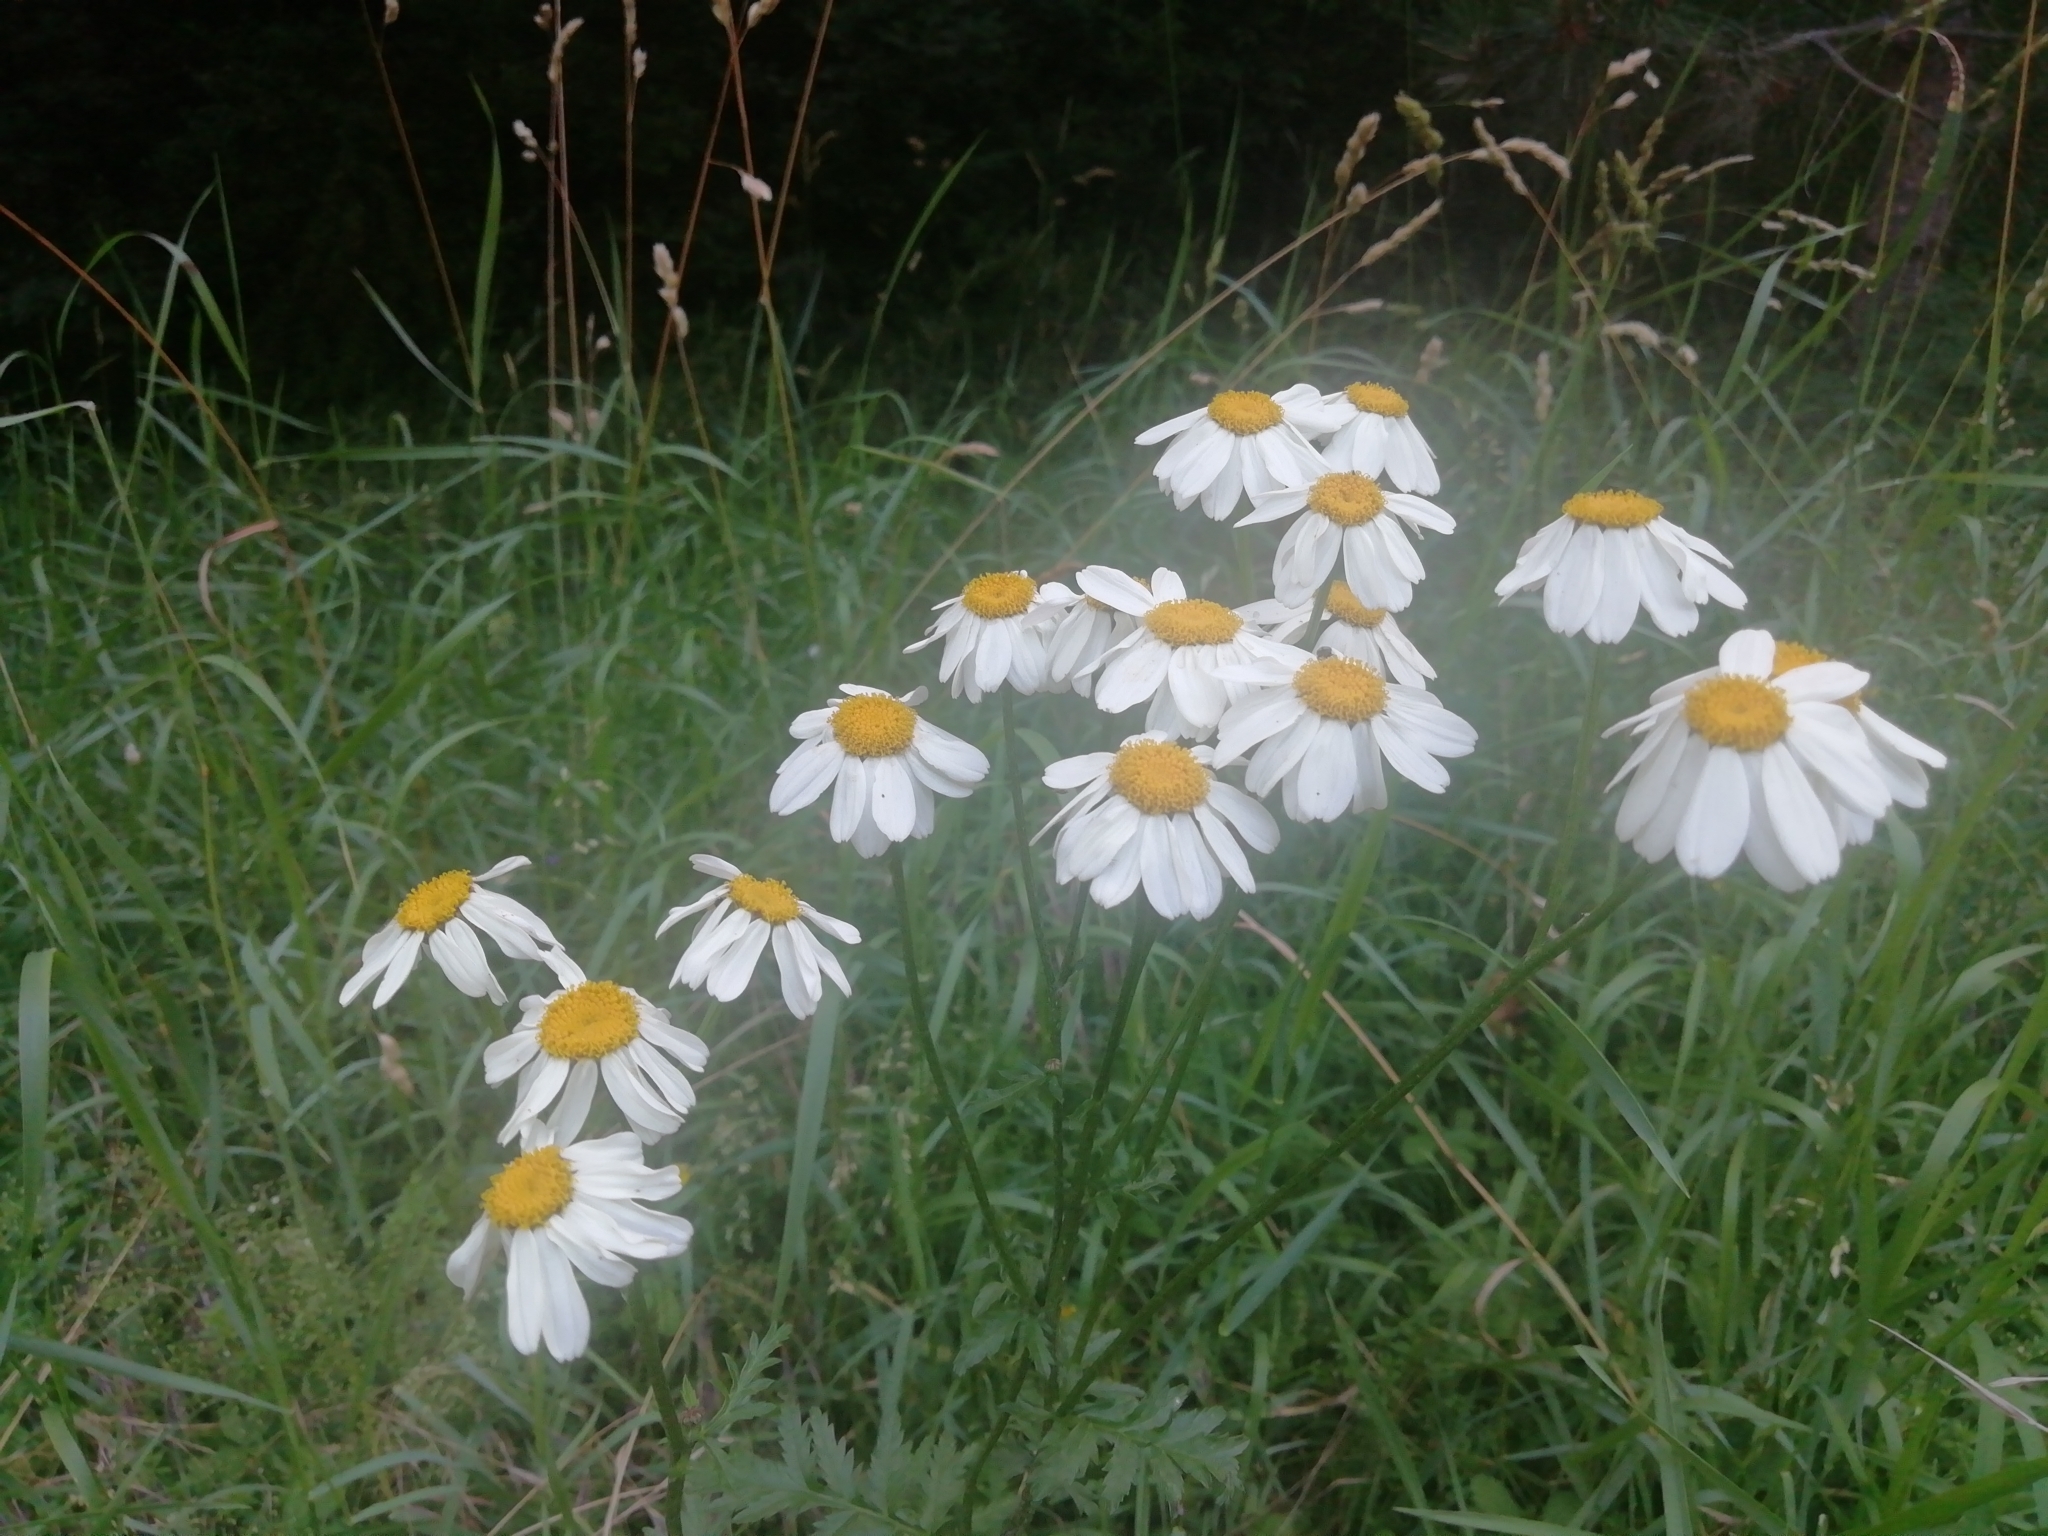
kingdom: Plantae
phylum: Tracheophyta
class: Magnoliopsida
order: Asterales
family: Asteraceae
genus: Tanacetum
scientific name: Tanacetum corymbosum
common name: Scentless feverfew
